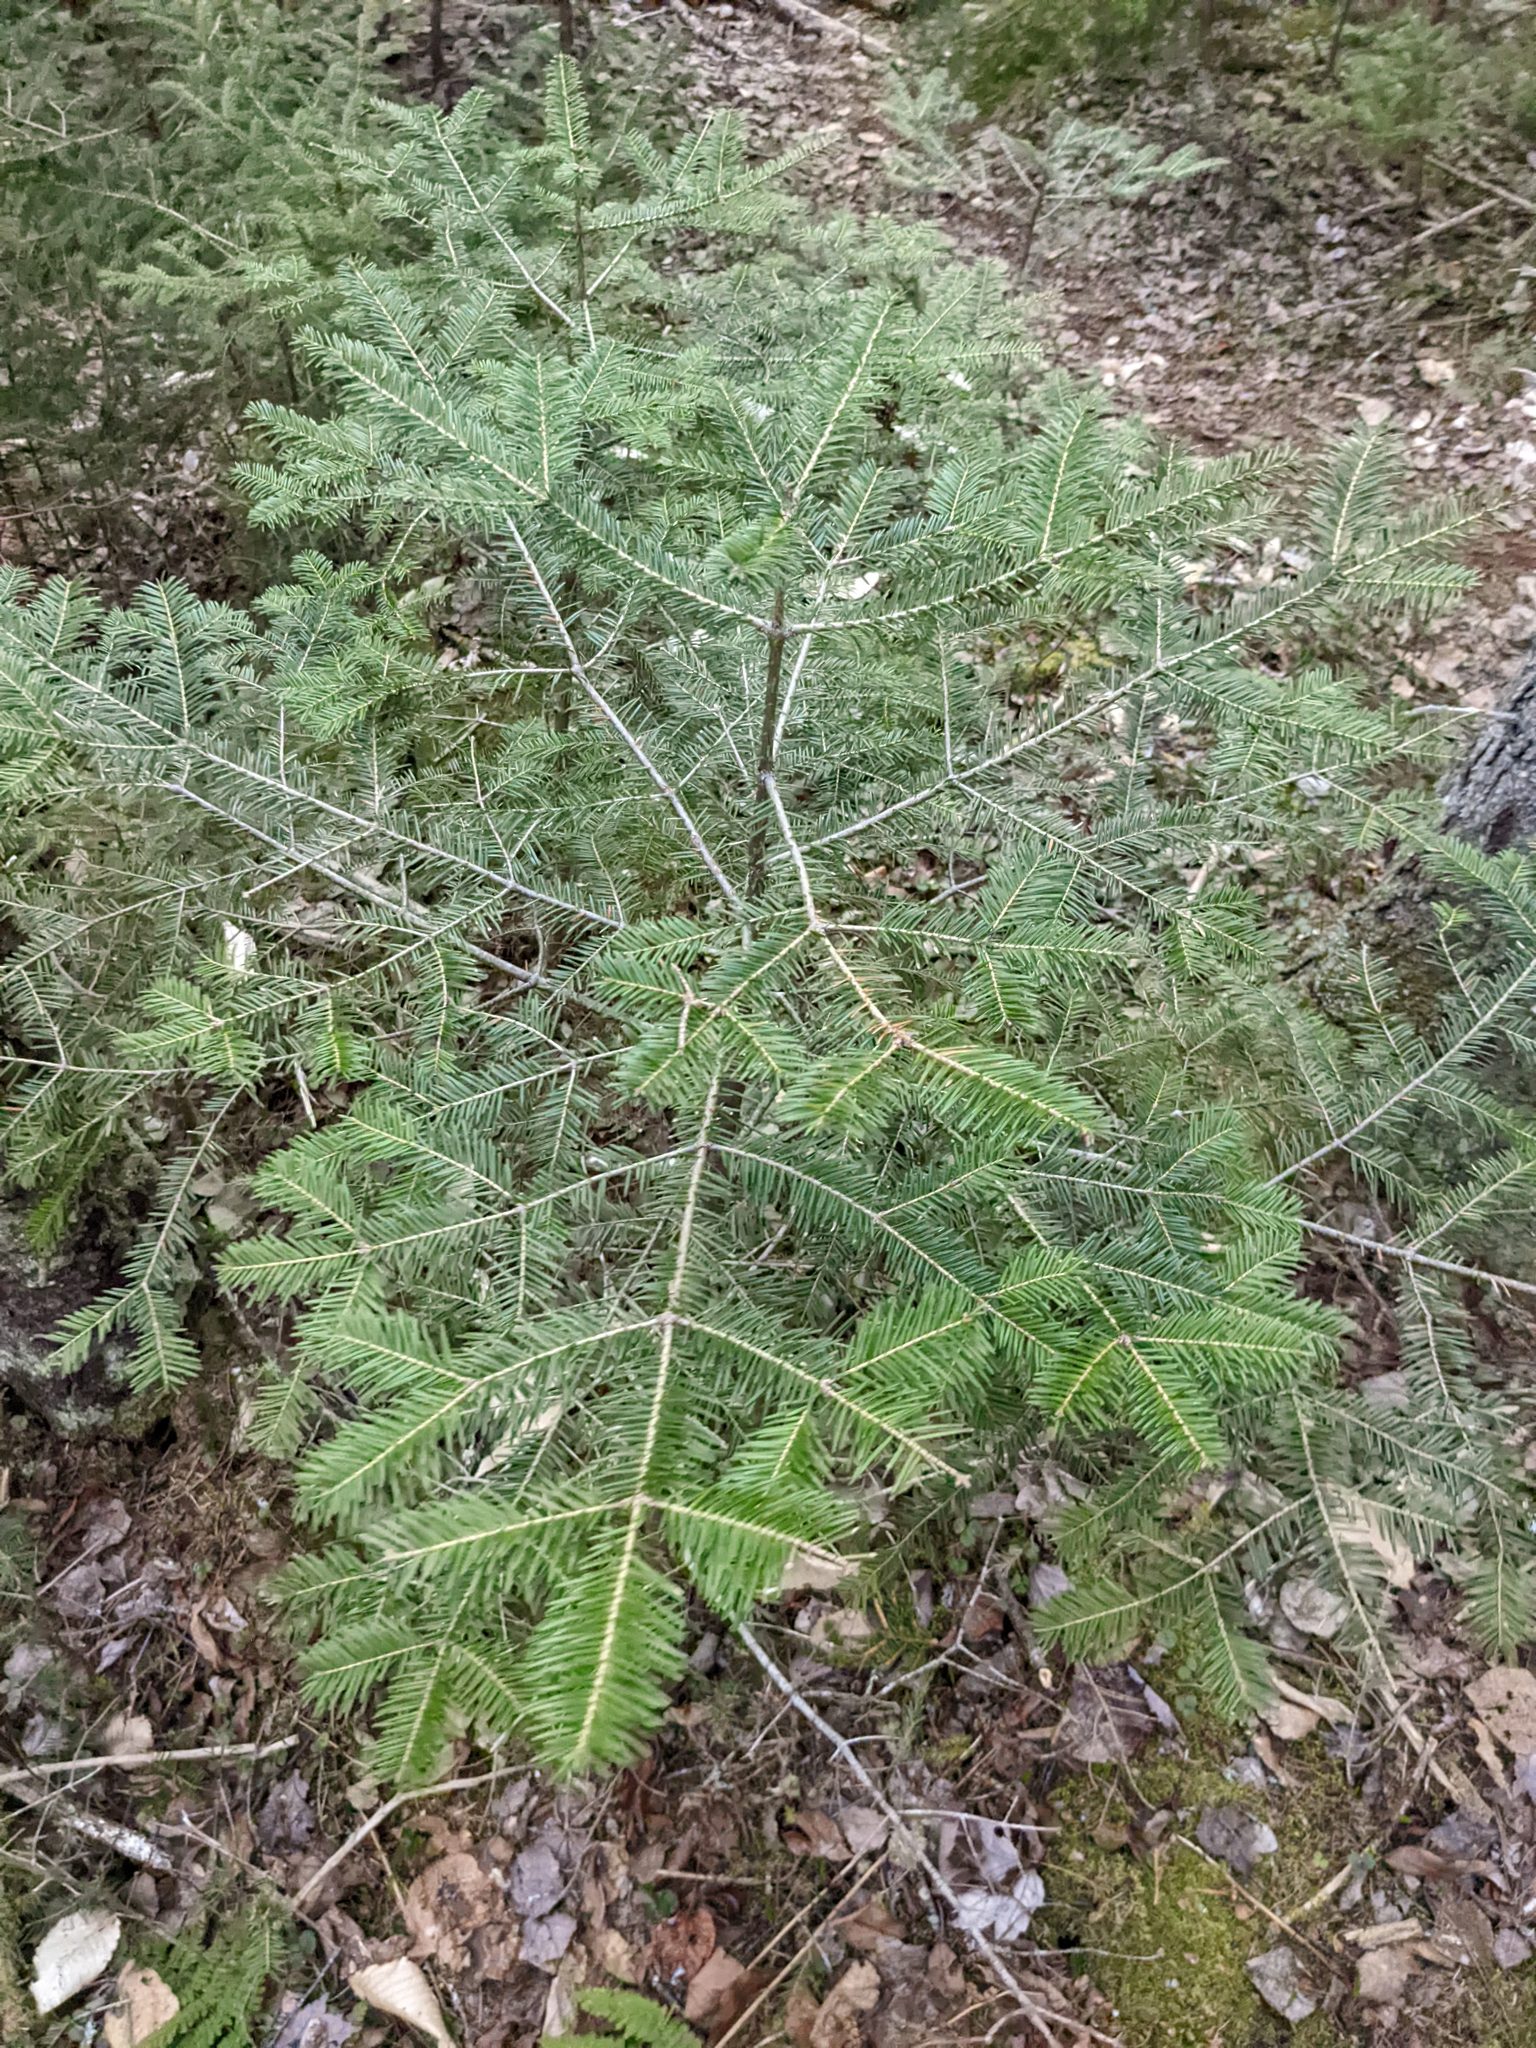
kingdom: Plantae
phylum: Tracheophyta
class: Pinopsida
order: Pinales
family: Pinaceae
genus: Abies
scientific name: Abies balsamea
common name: Balsam fir
